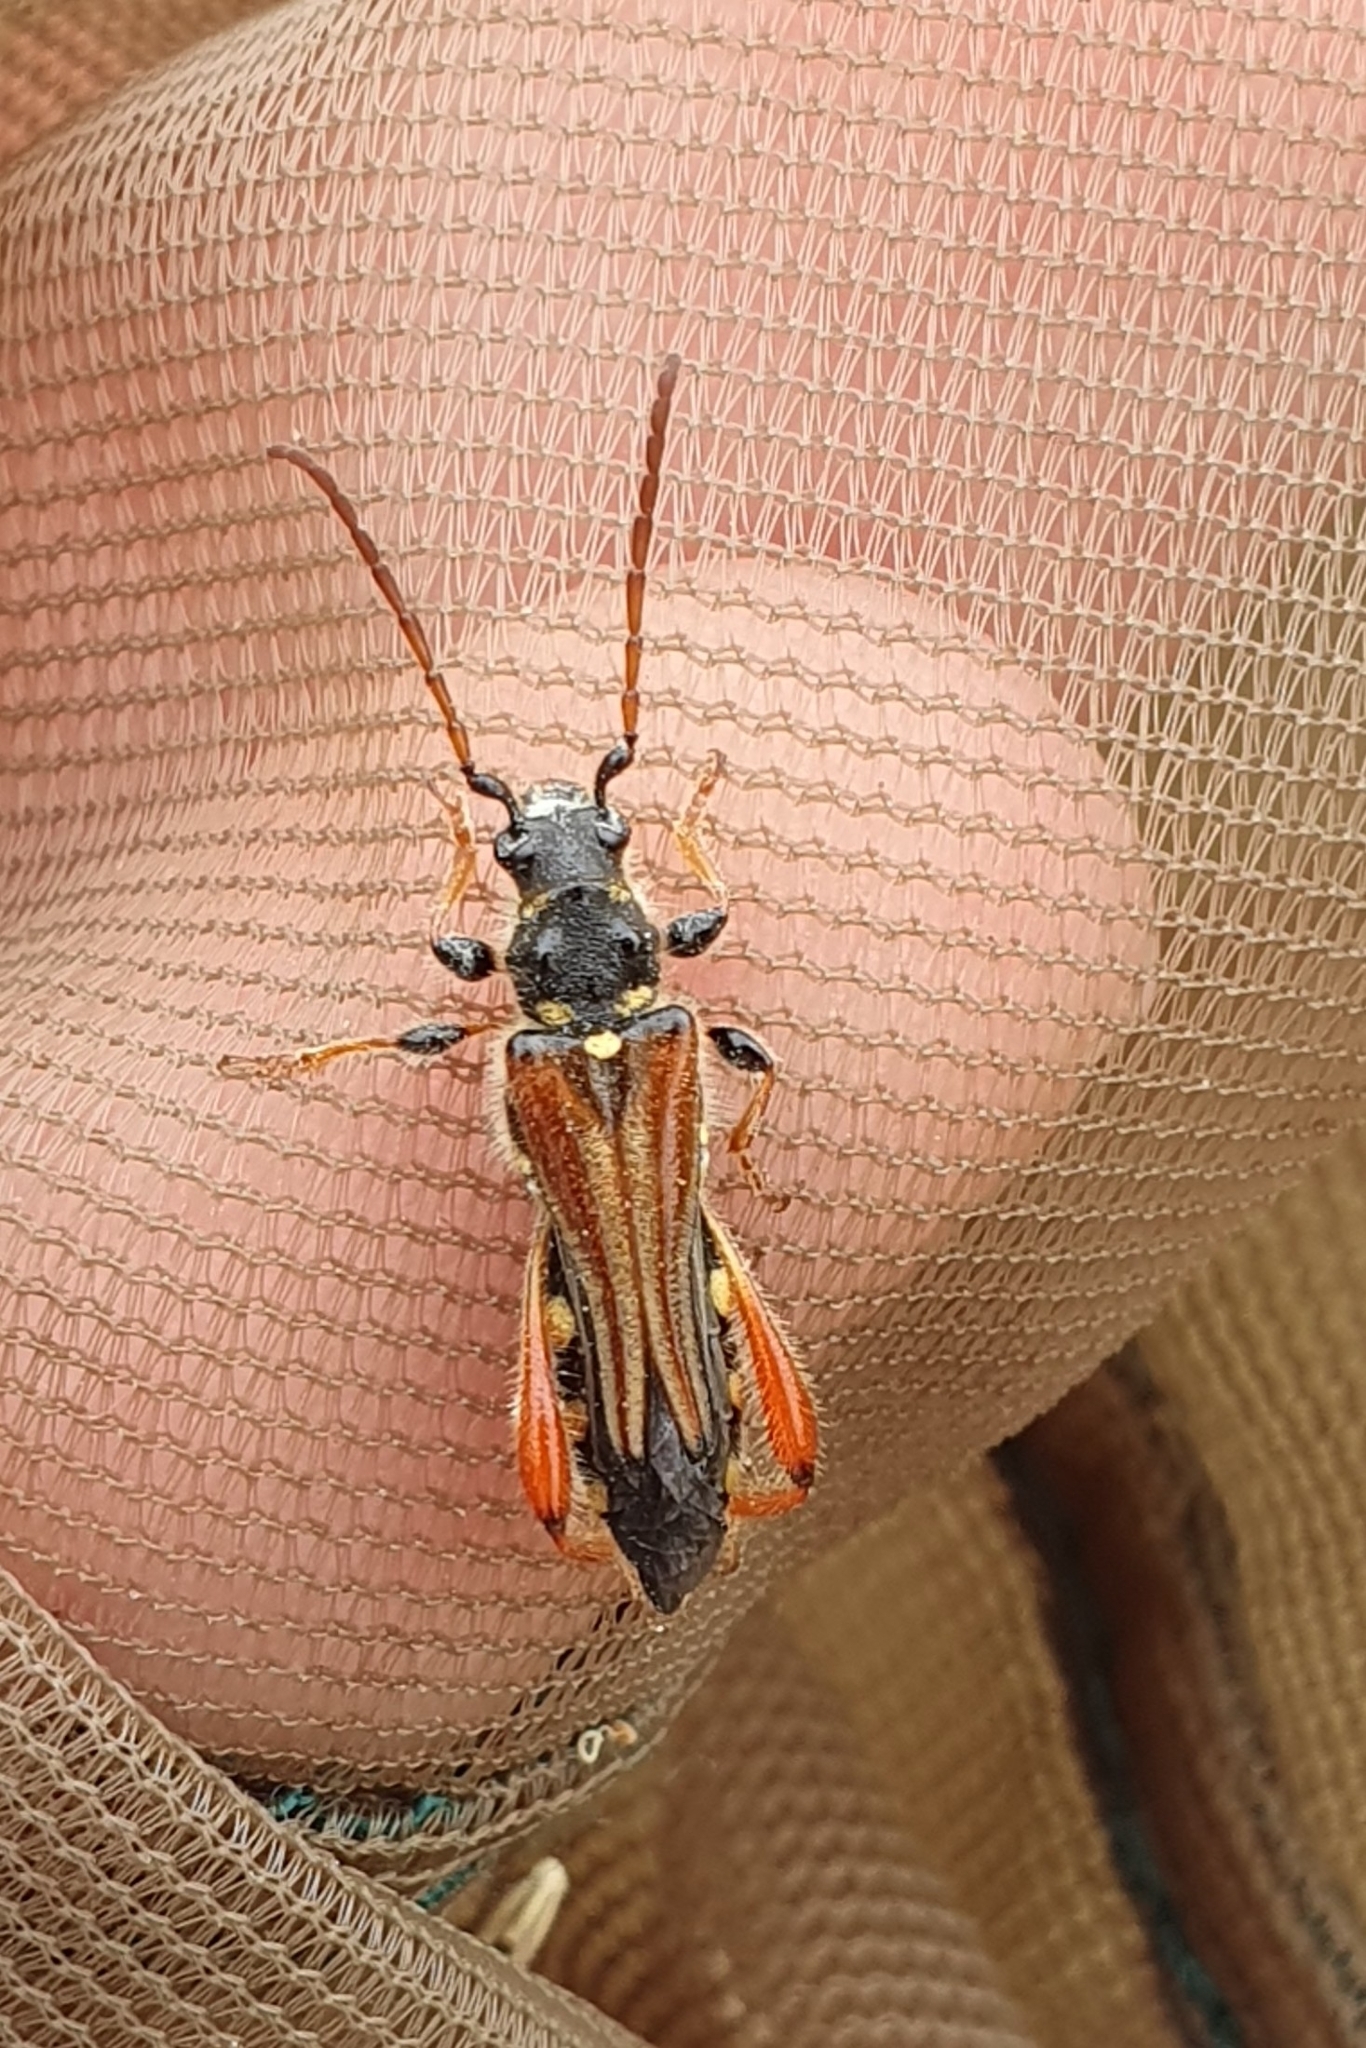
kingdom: Animalia
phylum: Arthropoda
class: Insecta
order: Coleoptera
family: Cerambycidae
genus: Stenopterus
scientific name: Stenopterus rufus
